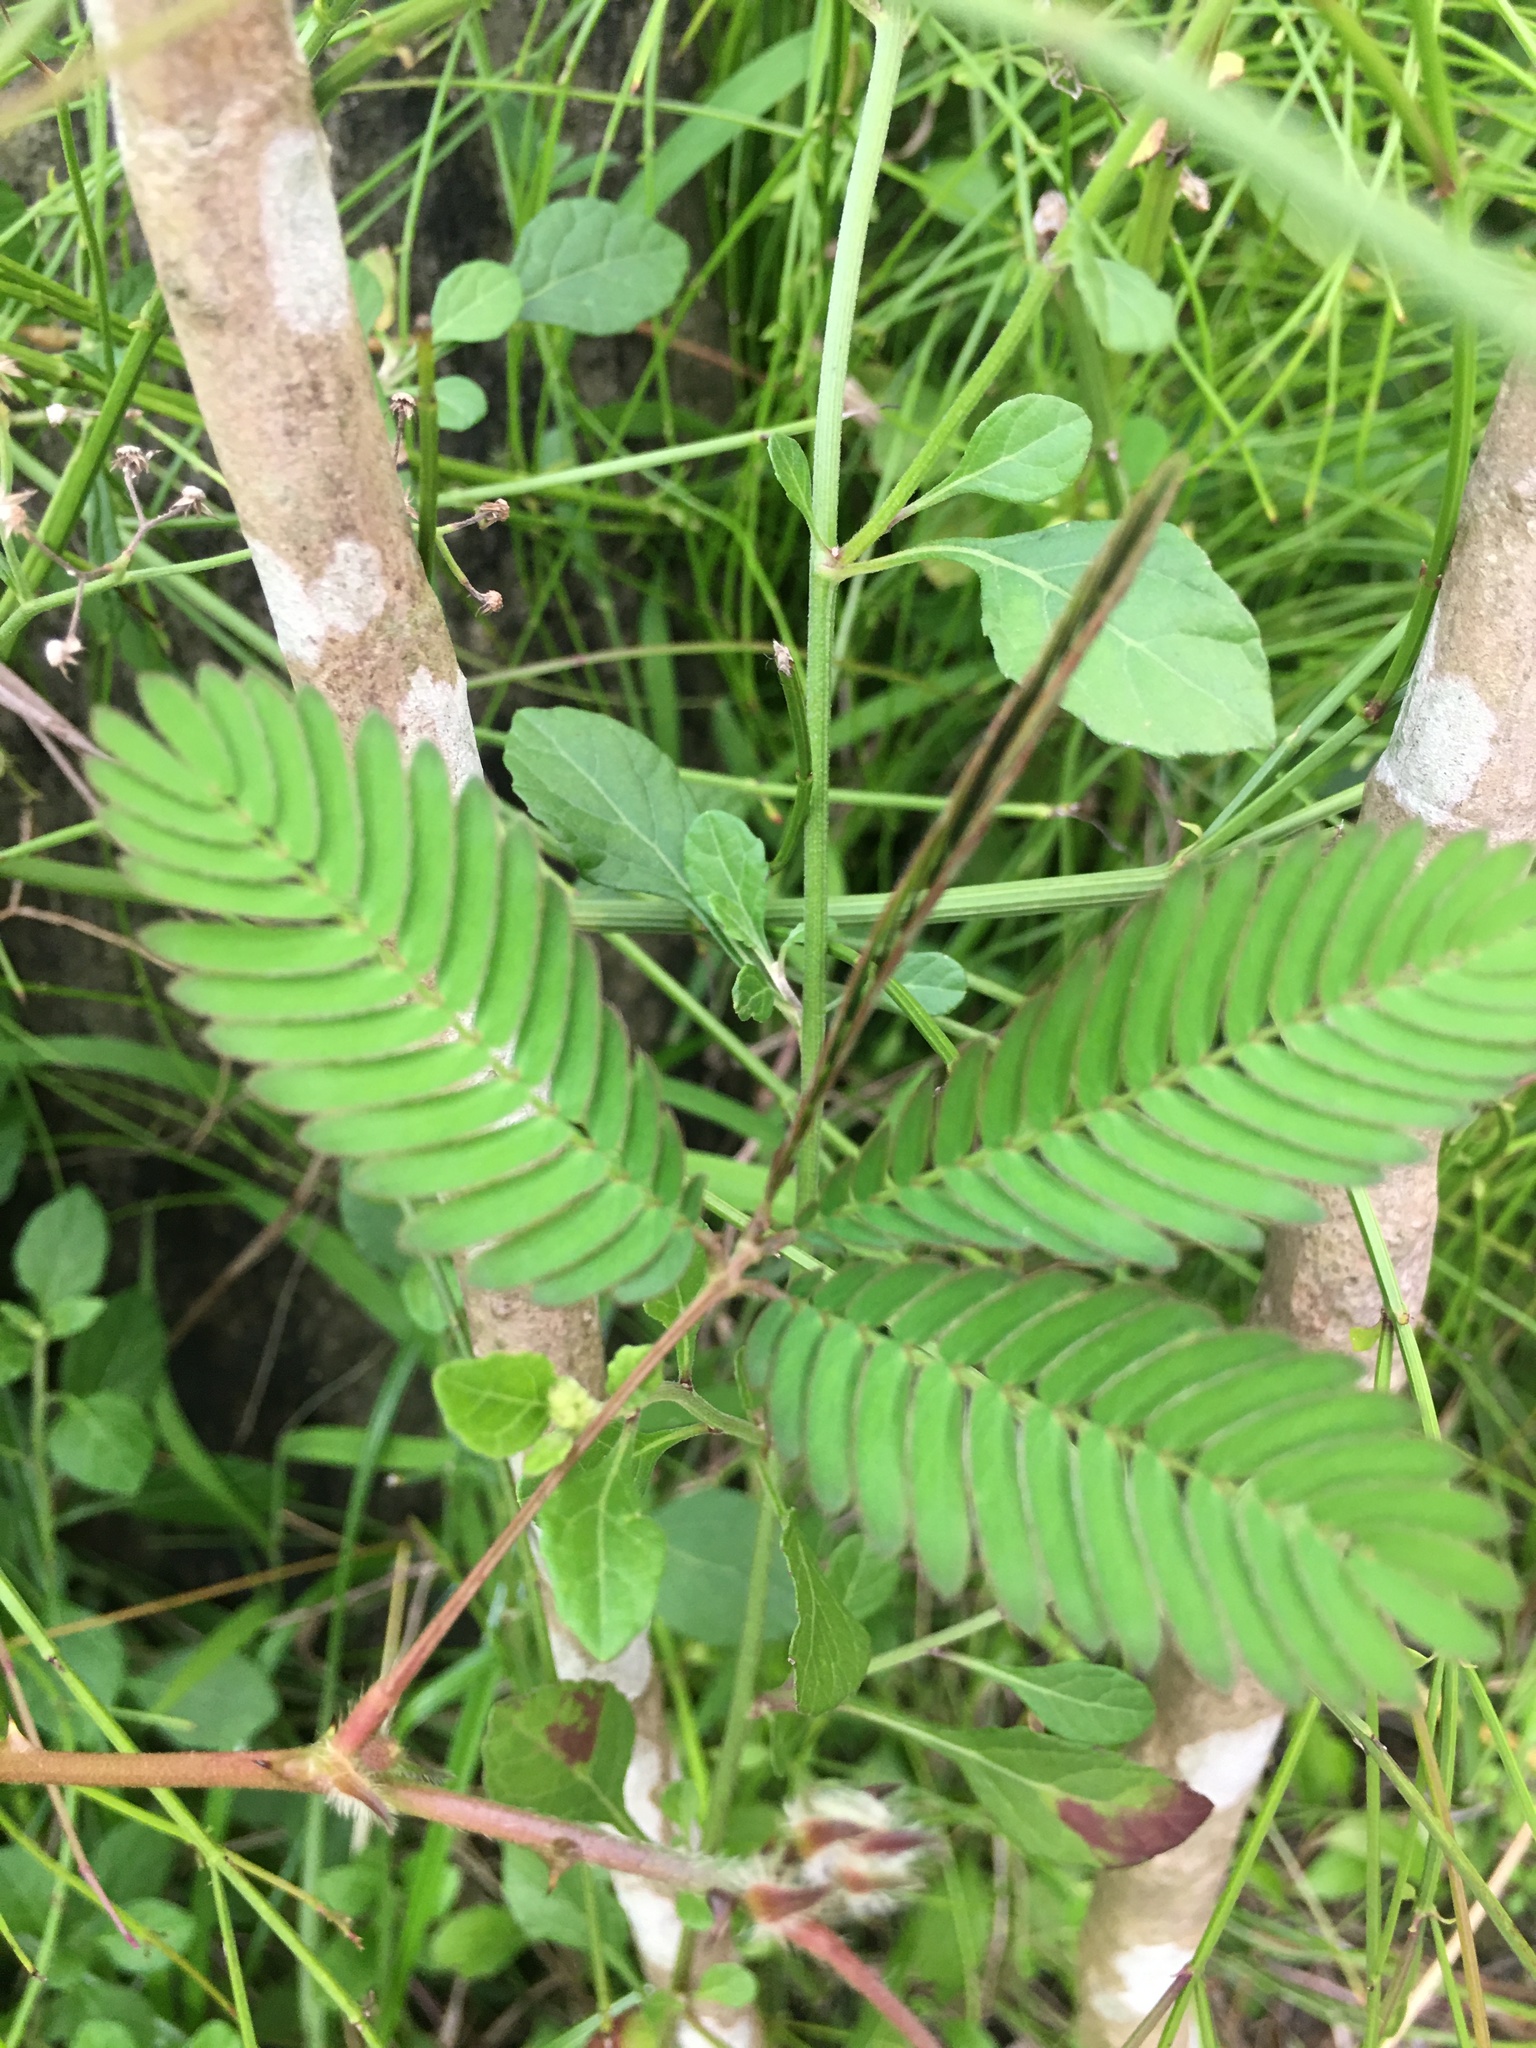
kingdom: Plantae
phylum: Tracheophyta
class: Magnoliopsida
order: Fabales
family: Fabaceae
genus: Mimosa
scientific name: Mimosa pudica
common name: Sensitive plant
